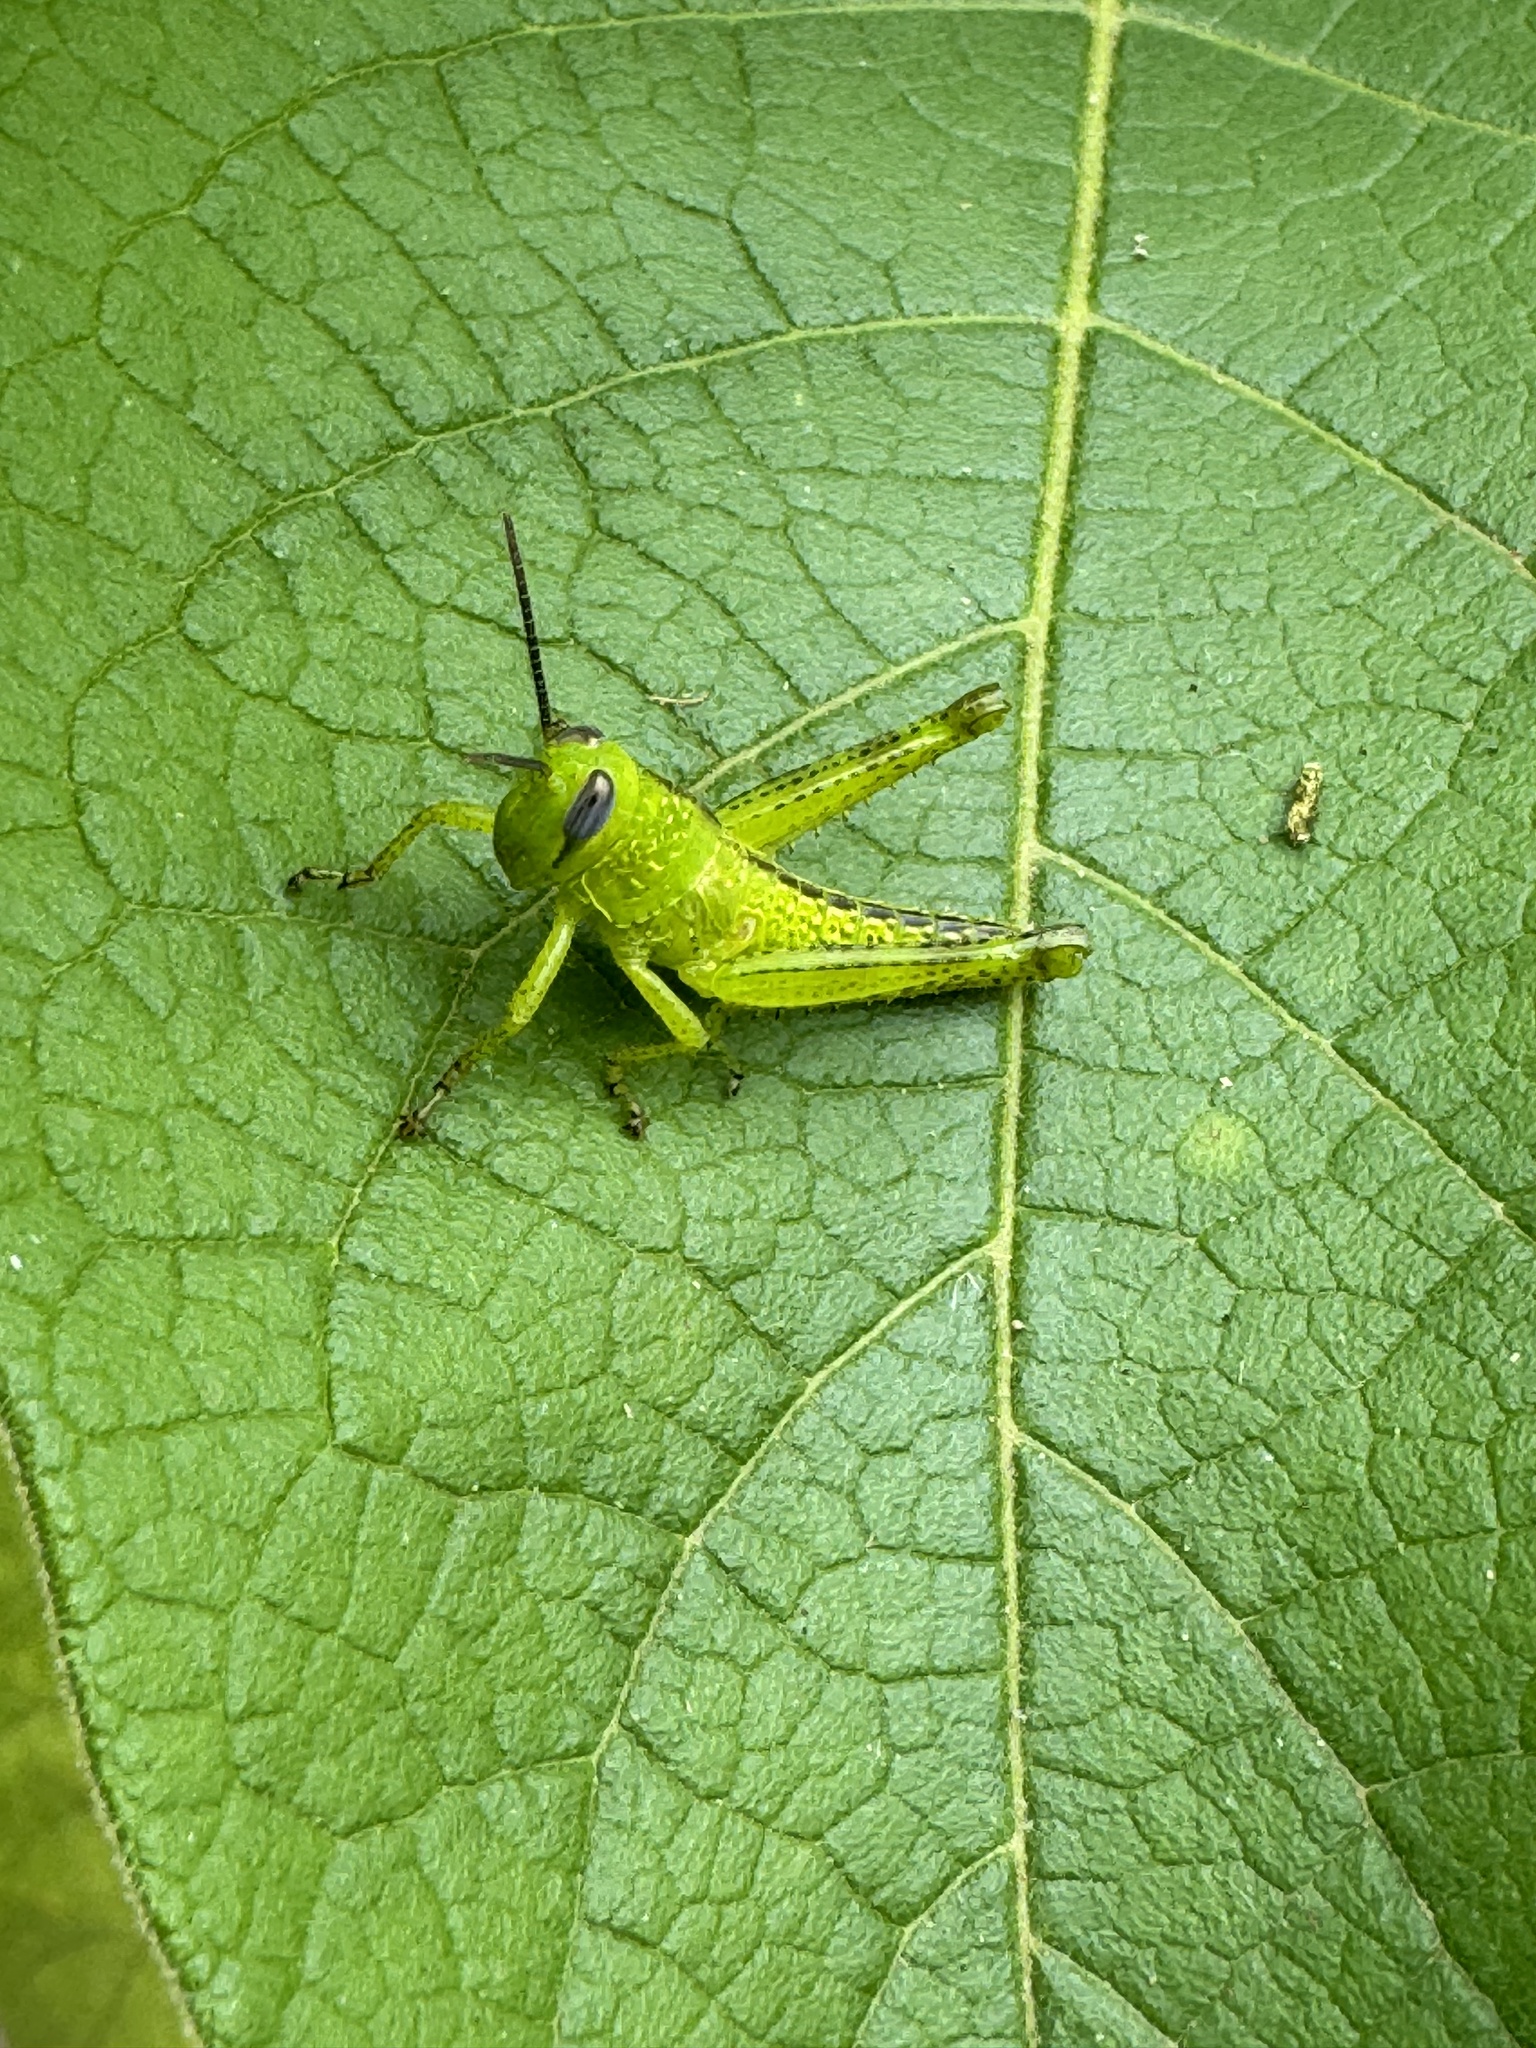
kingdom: Animalia
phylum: Arthropoda
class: Insecta
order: Orthoptera
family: Acrididae
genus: Valanga
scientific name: Valanga irregularis
